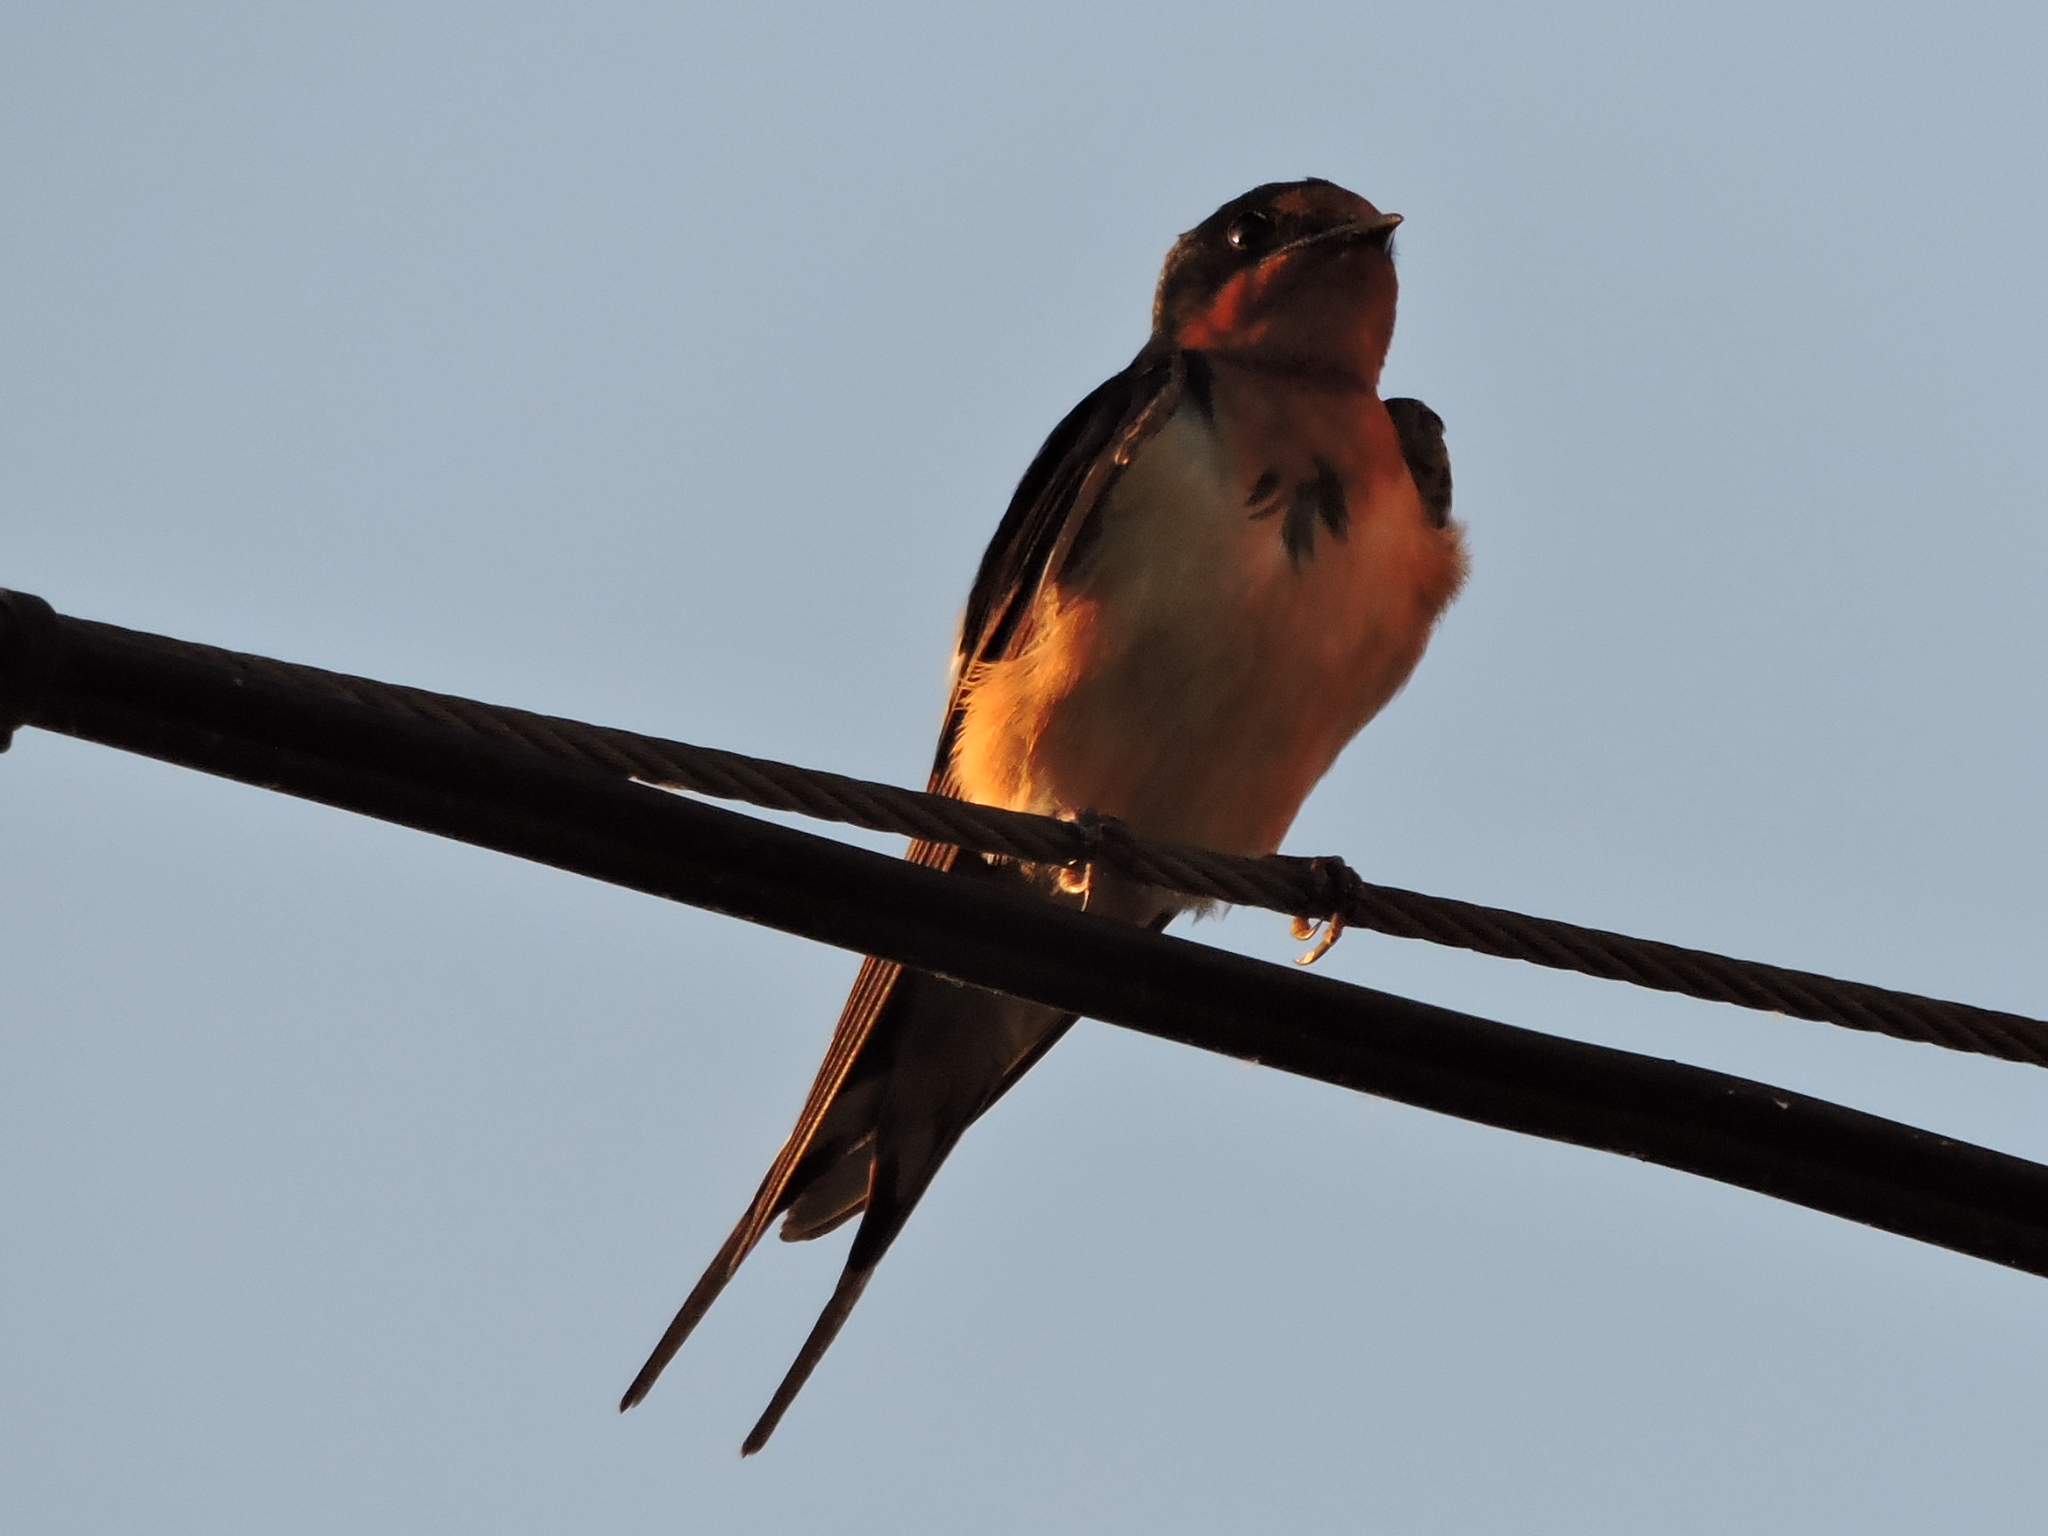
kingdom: Animalia
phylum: Chordata
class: Aves
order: Passeriformes
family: Hirundinidae
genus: Hirundo
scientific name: Hirundo rustica
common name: Barn swallow
